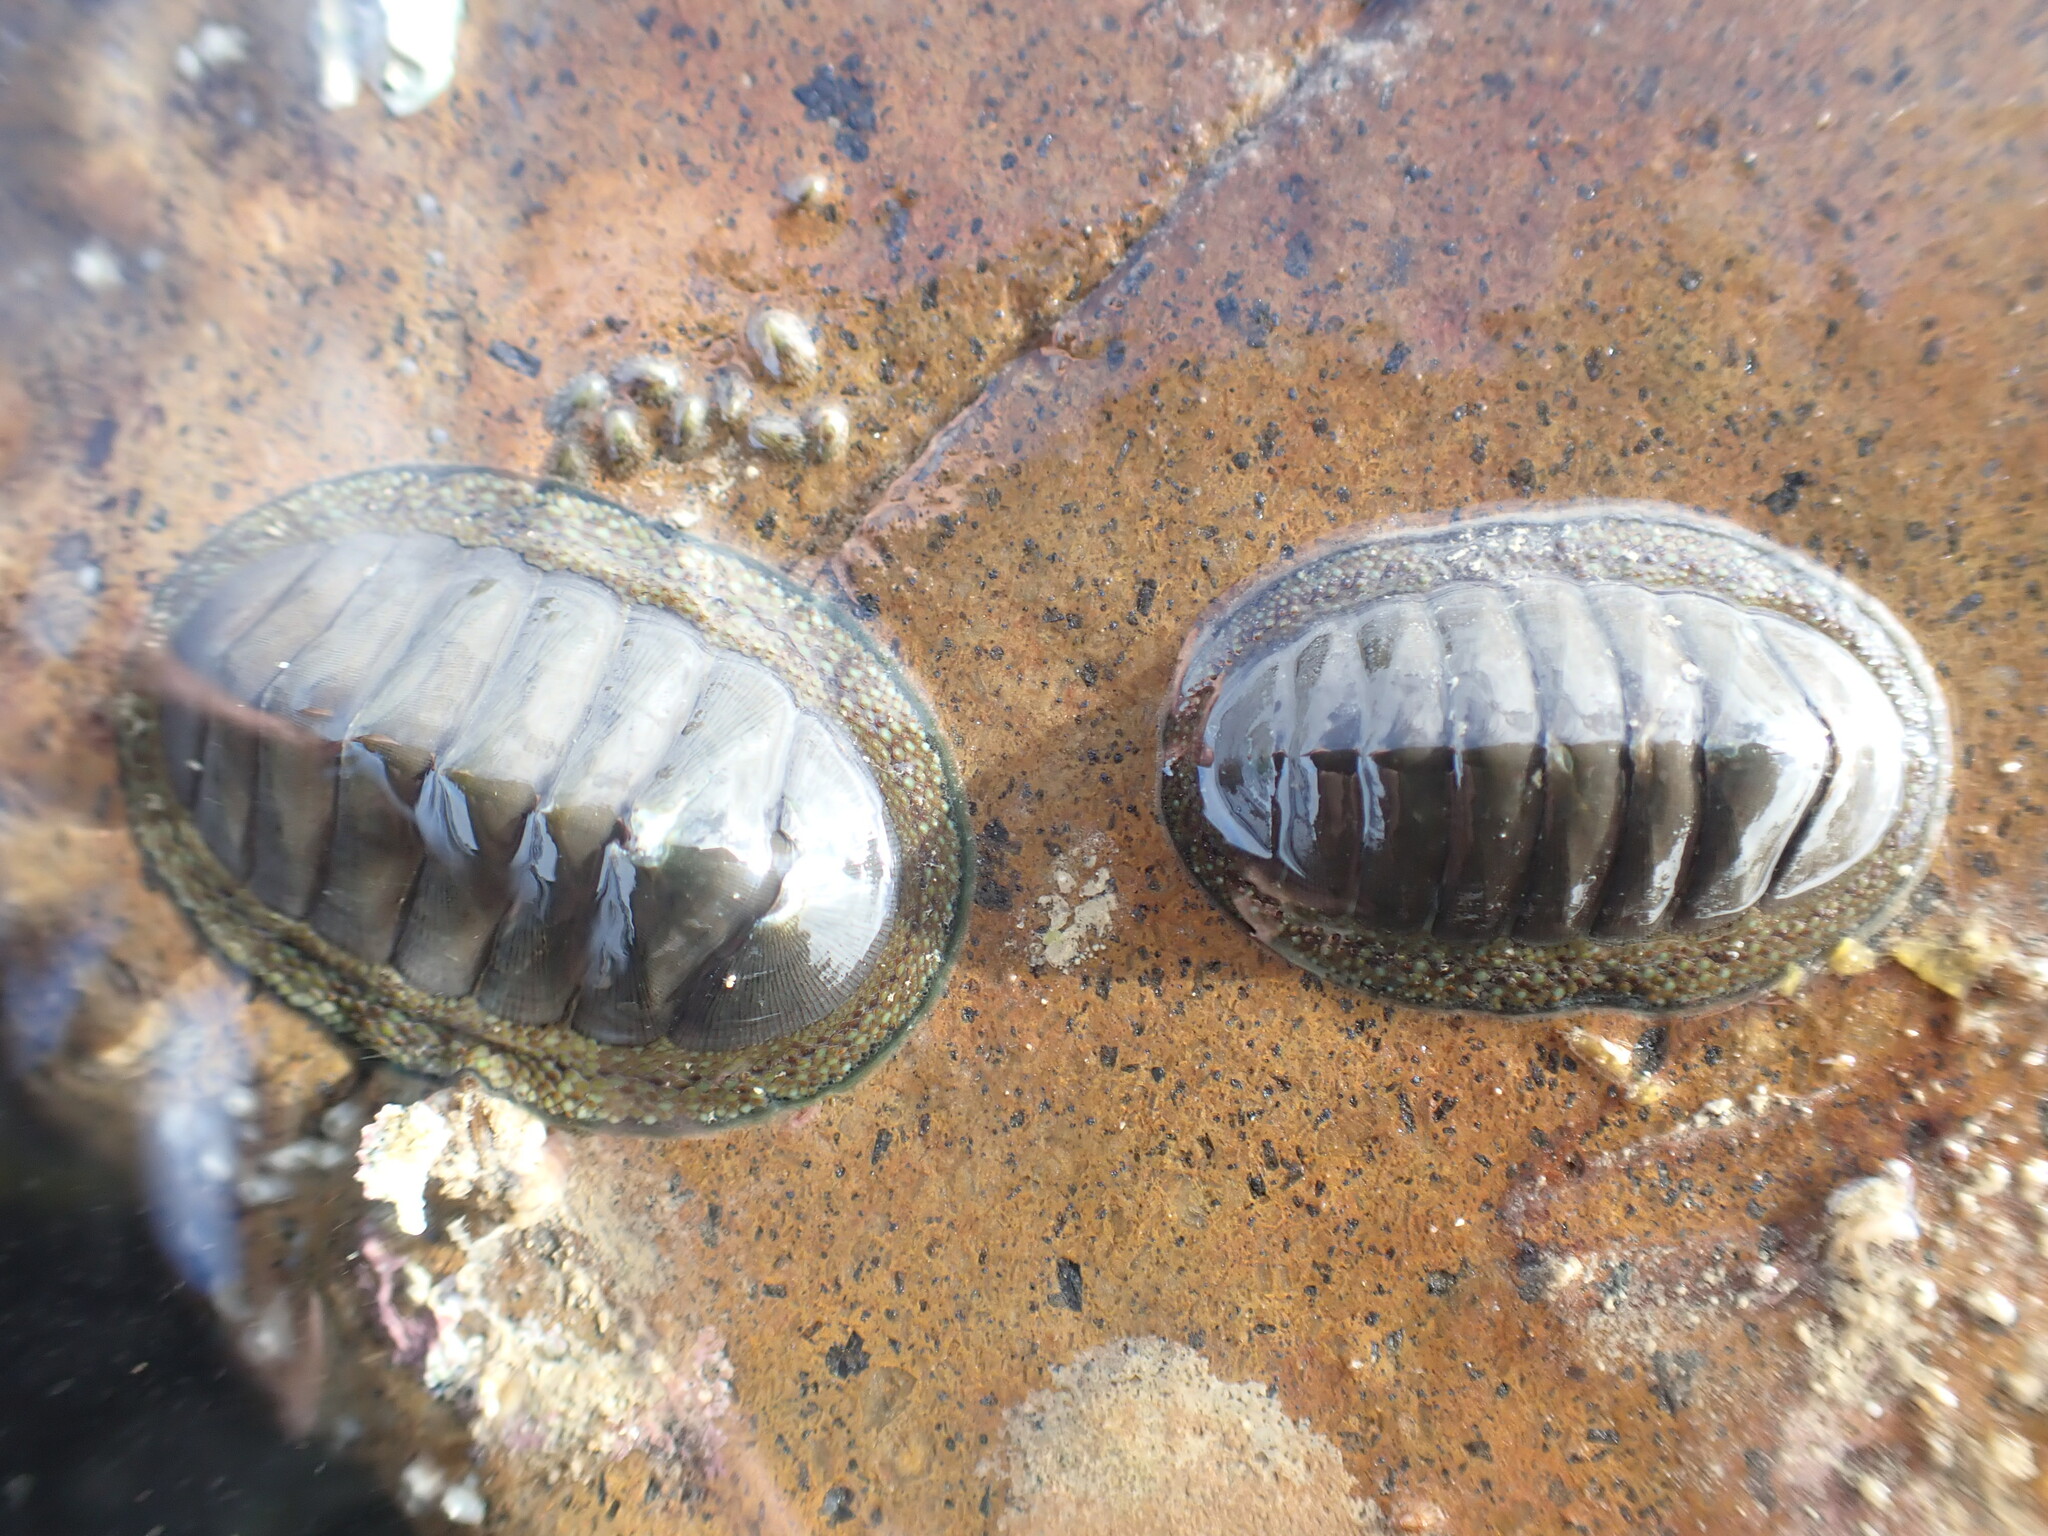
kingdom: Animalia
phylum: Mollusca
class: Polyplacophora
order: Chitonida
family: Chitonidae
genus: Chiton
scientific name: Chiton glaucus
